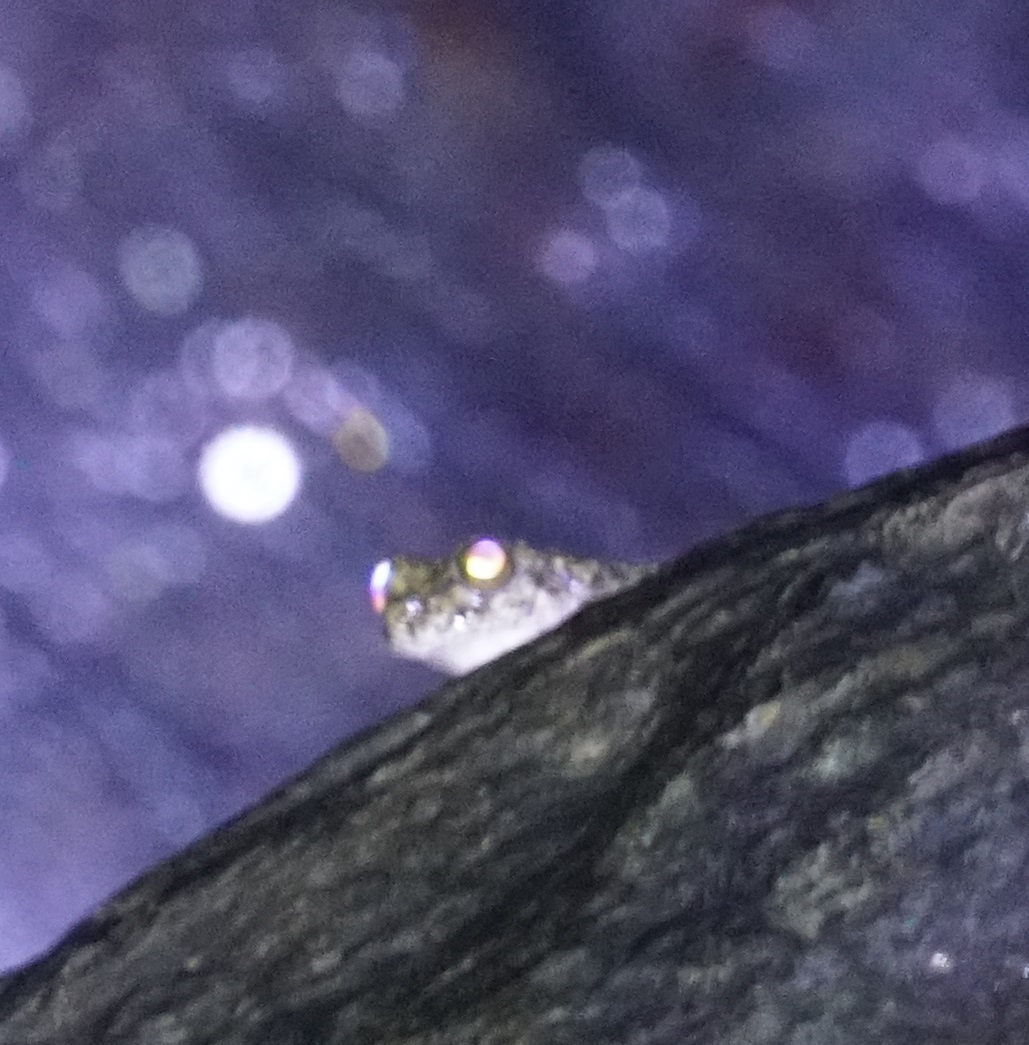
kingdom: Animalia
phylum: Chordata
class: Amphibia
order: Anura
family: Pelodryadidae
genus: Ranoidea
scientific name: Ranoidea nannotis
